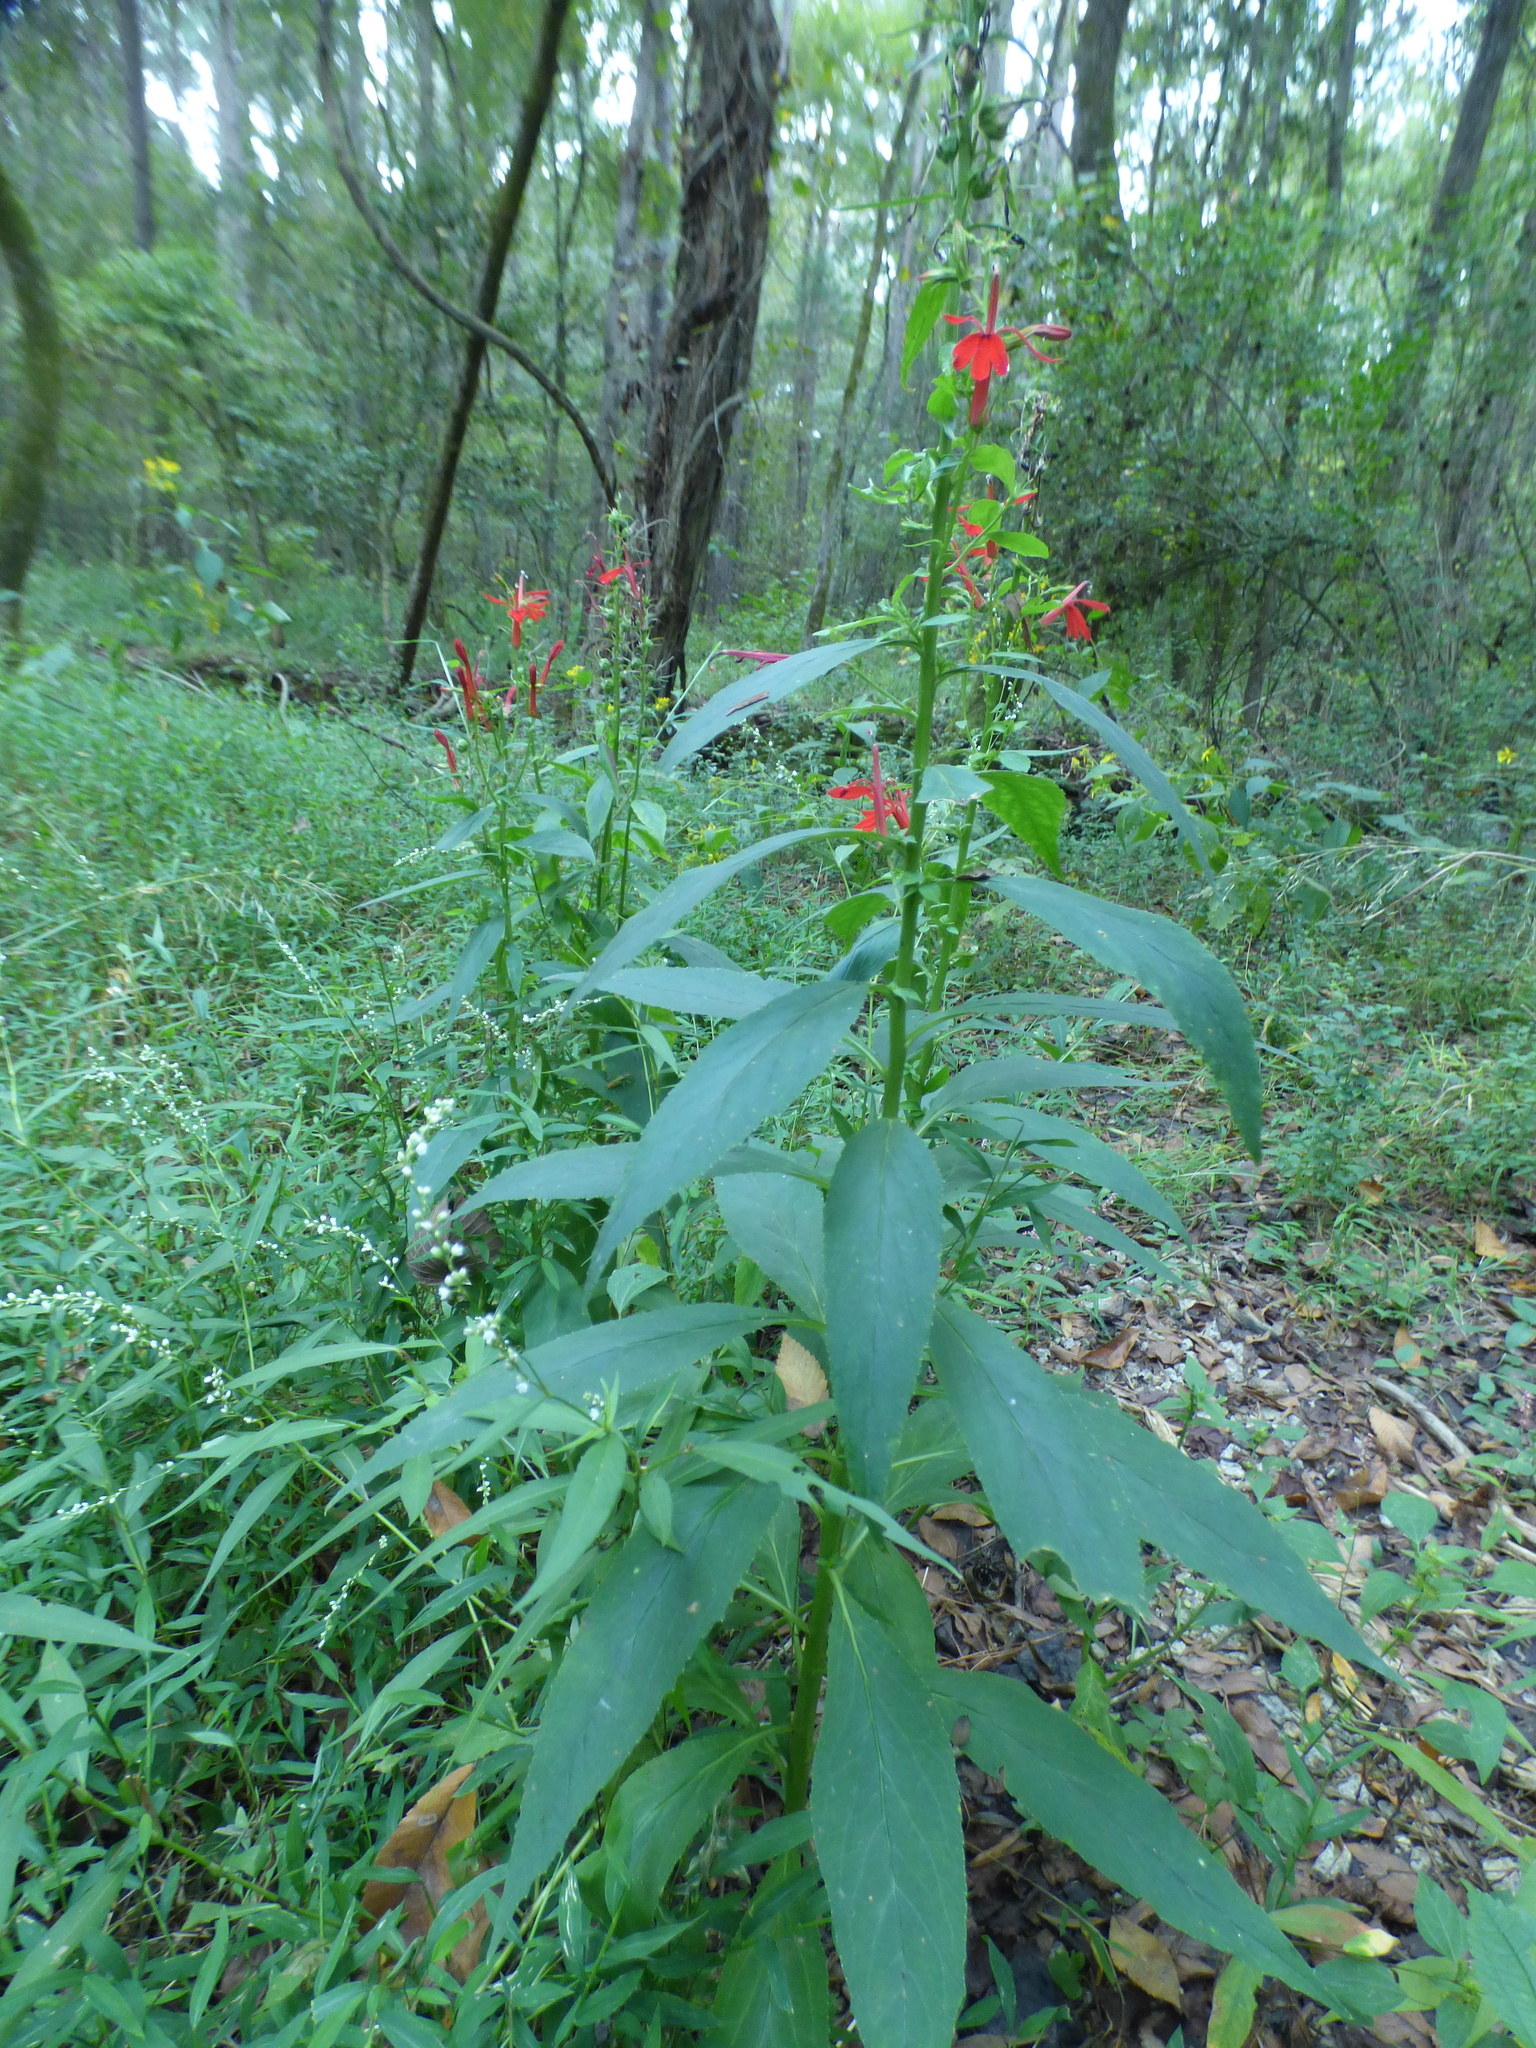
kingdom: Plantae
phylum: Tracheophyta
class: Magnoliopsida
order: Asterales
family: Campanulaceae
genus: Lobelia
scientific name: Lobelia cardinalis
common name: Cardinal flower
